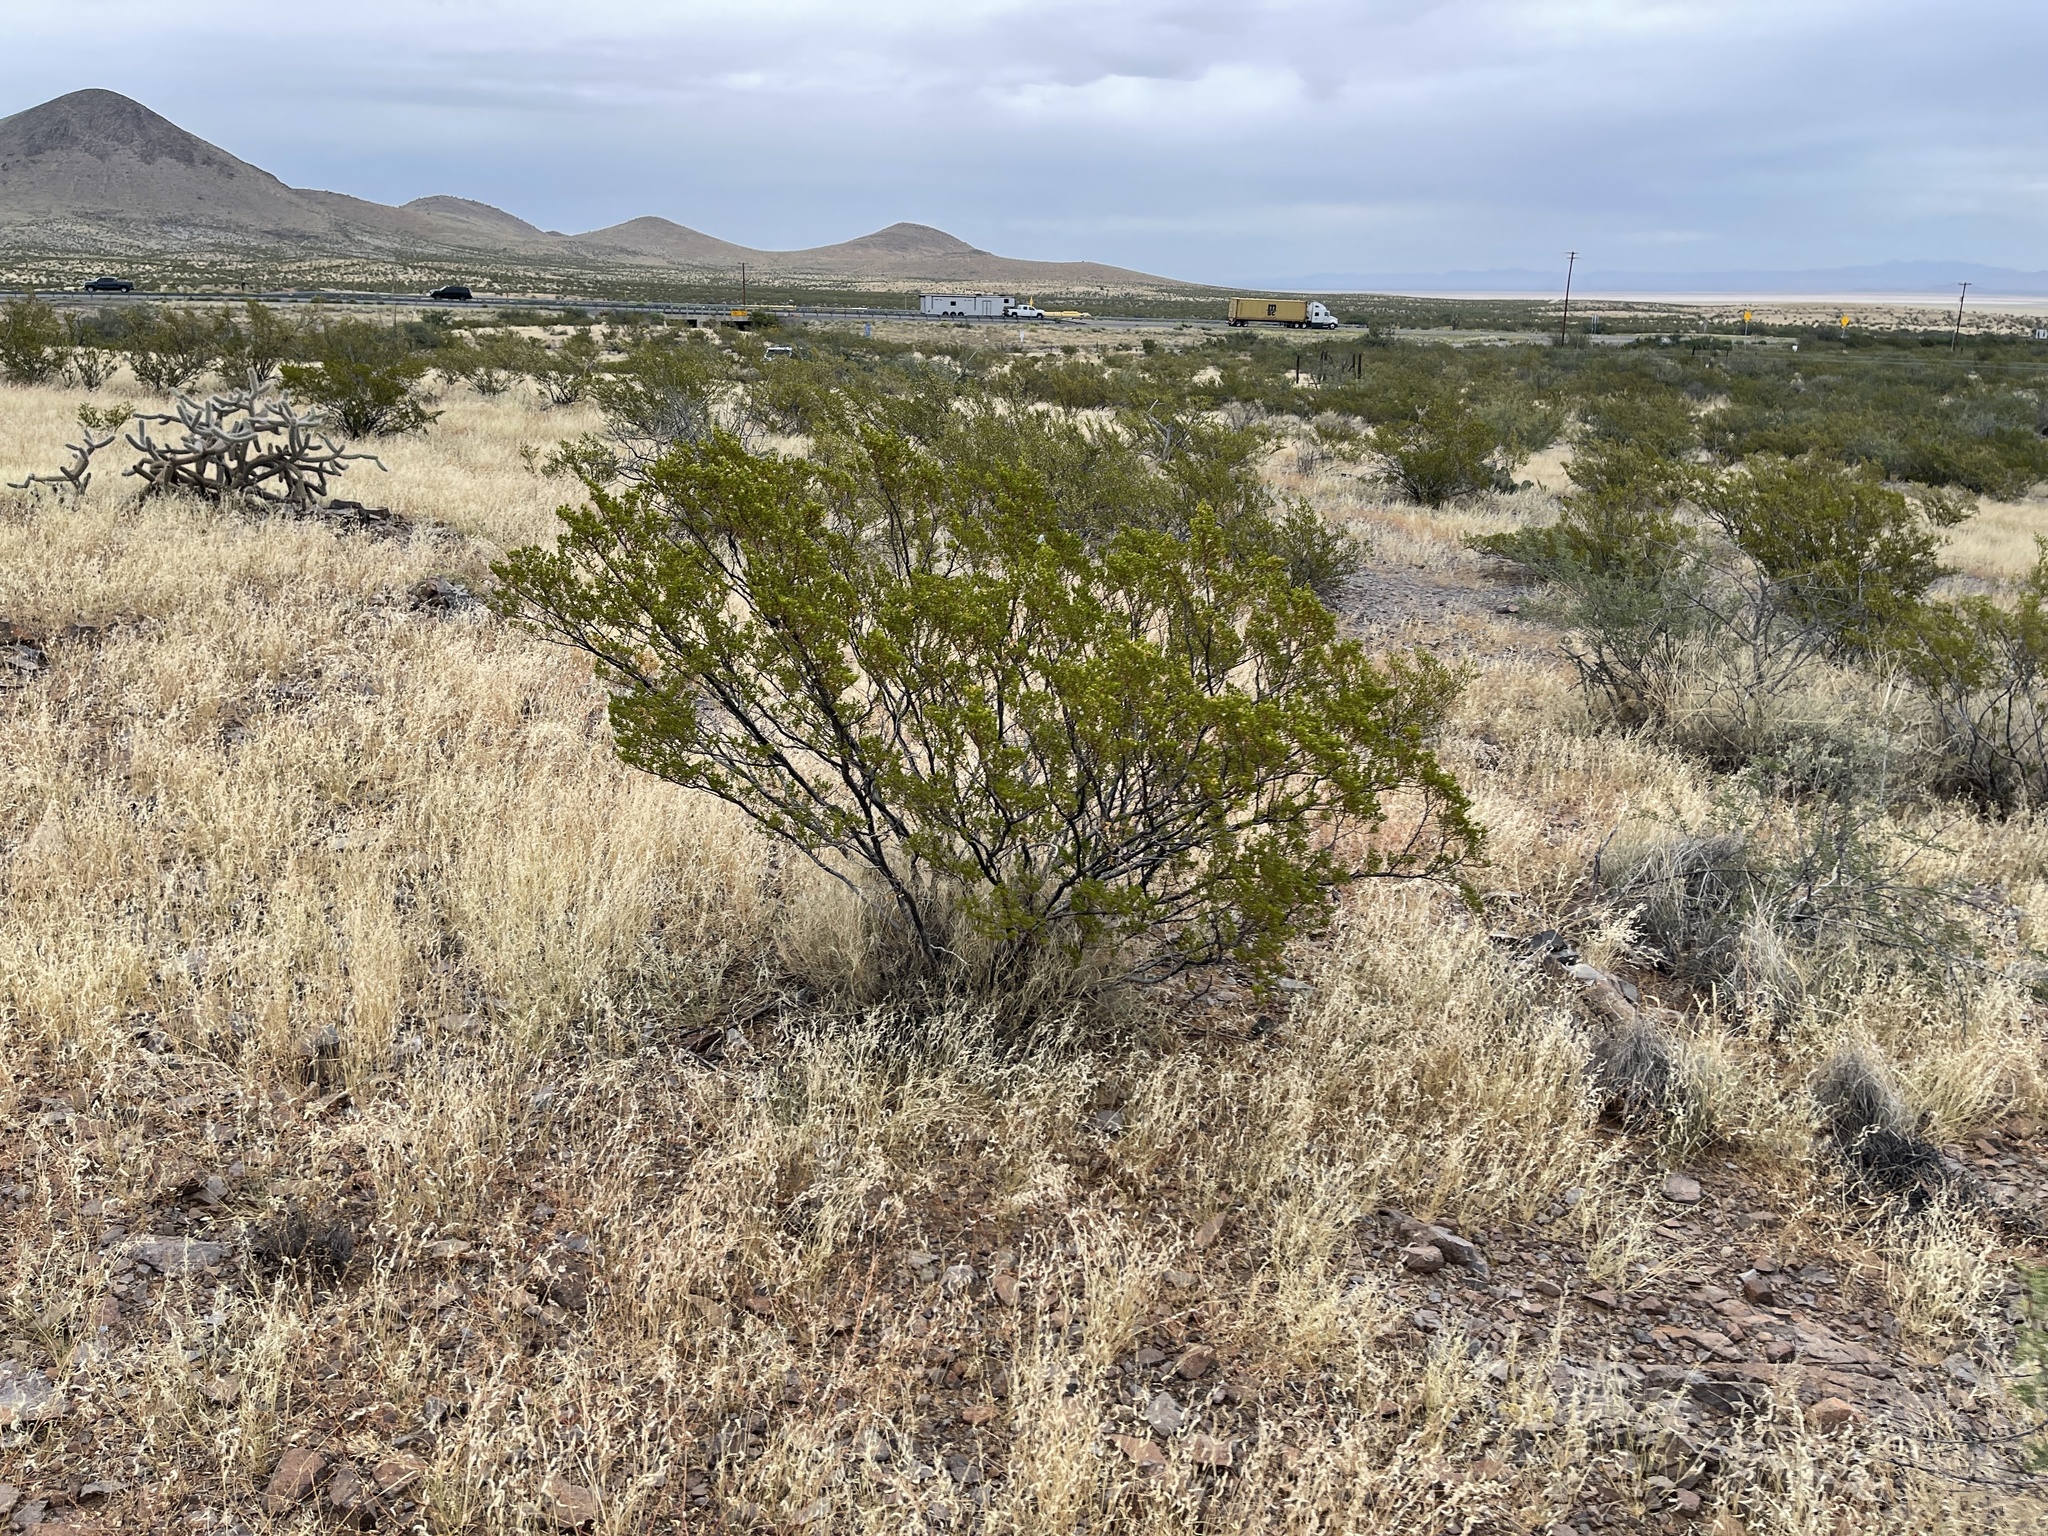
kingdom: Plantae
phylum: Tracheophyta
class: Magnoliopsida
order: Zygophyllales
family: Zygophyllaceae
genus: Larrea
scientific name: Larrea tridentata
